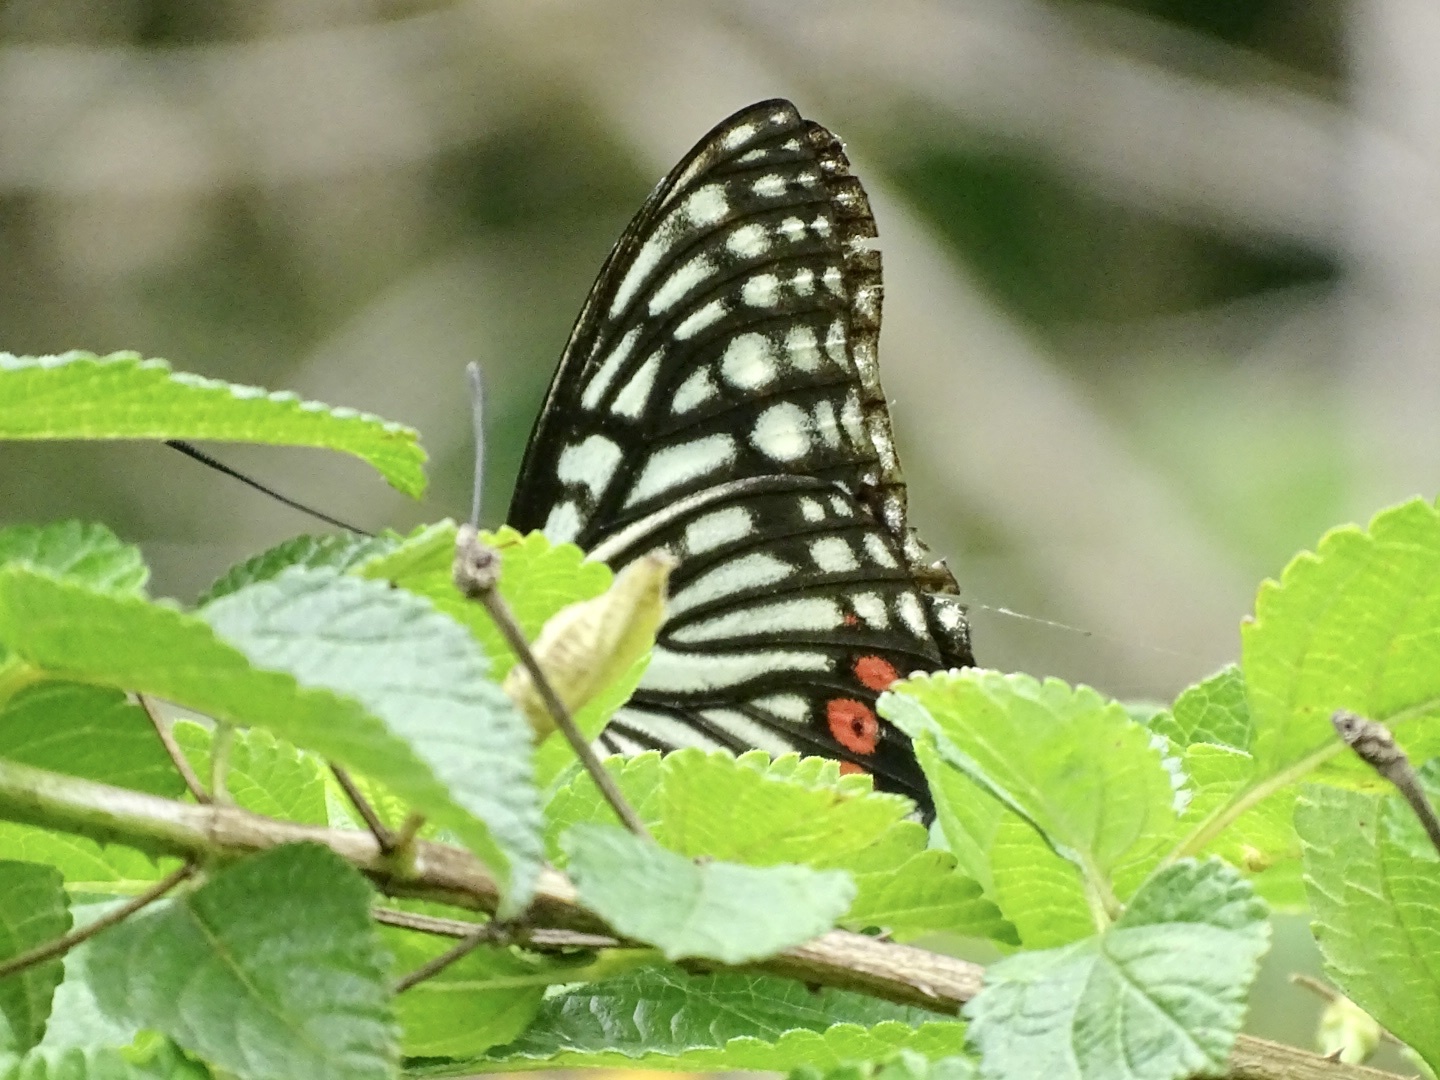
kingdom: Animalia
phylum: Arthropoda
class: Insecta
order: Lepidoptera
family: Nymphalidae
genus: Hestina
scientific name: Hestina assimilis
